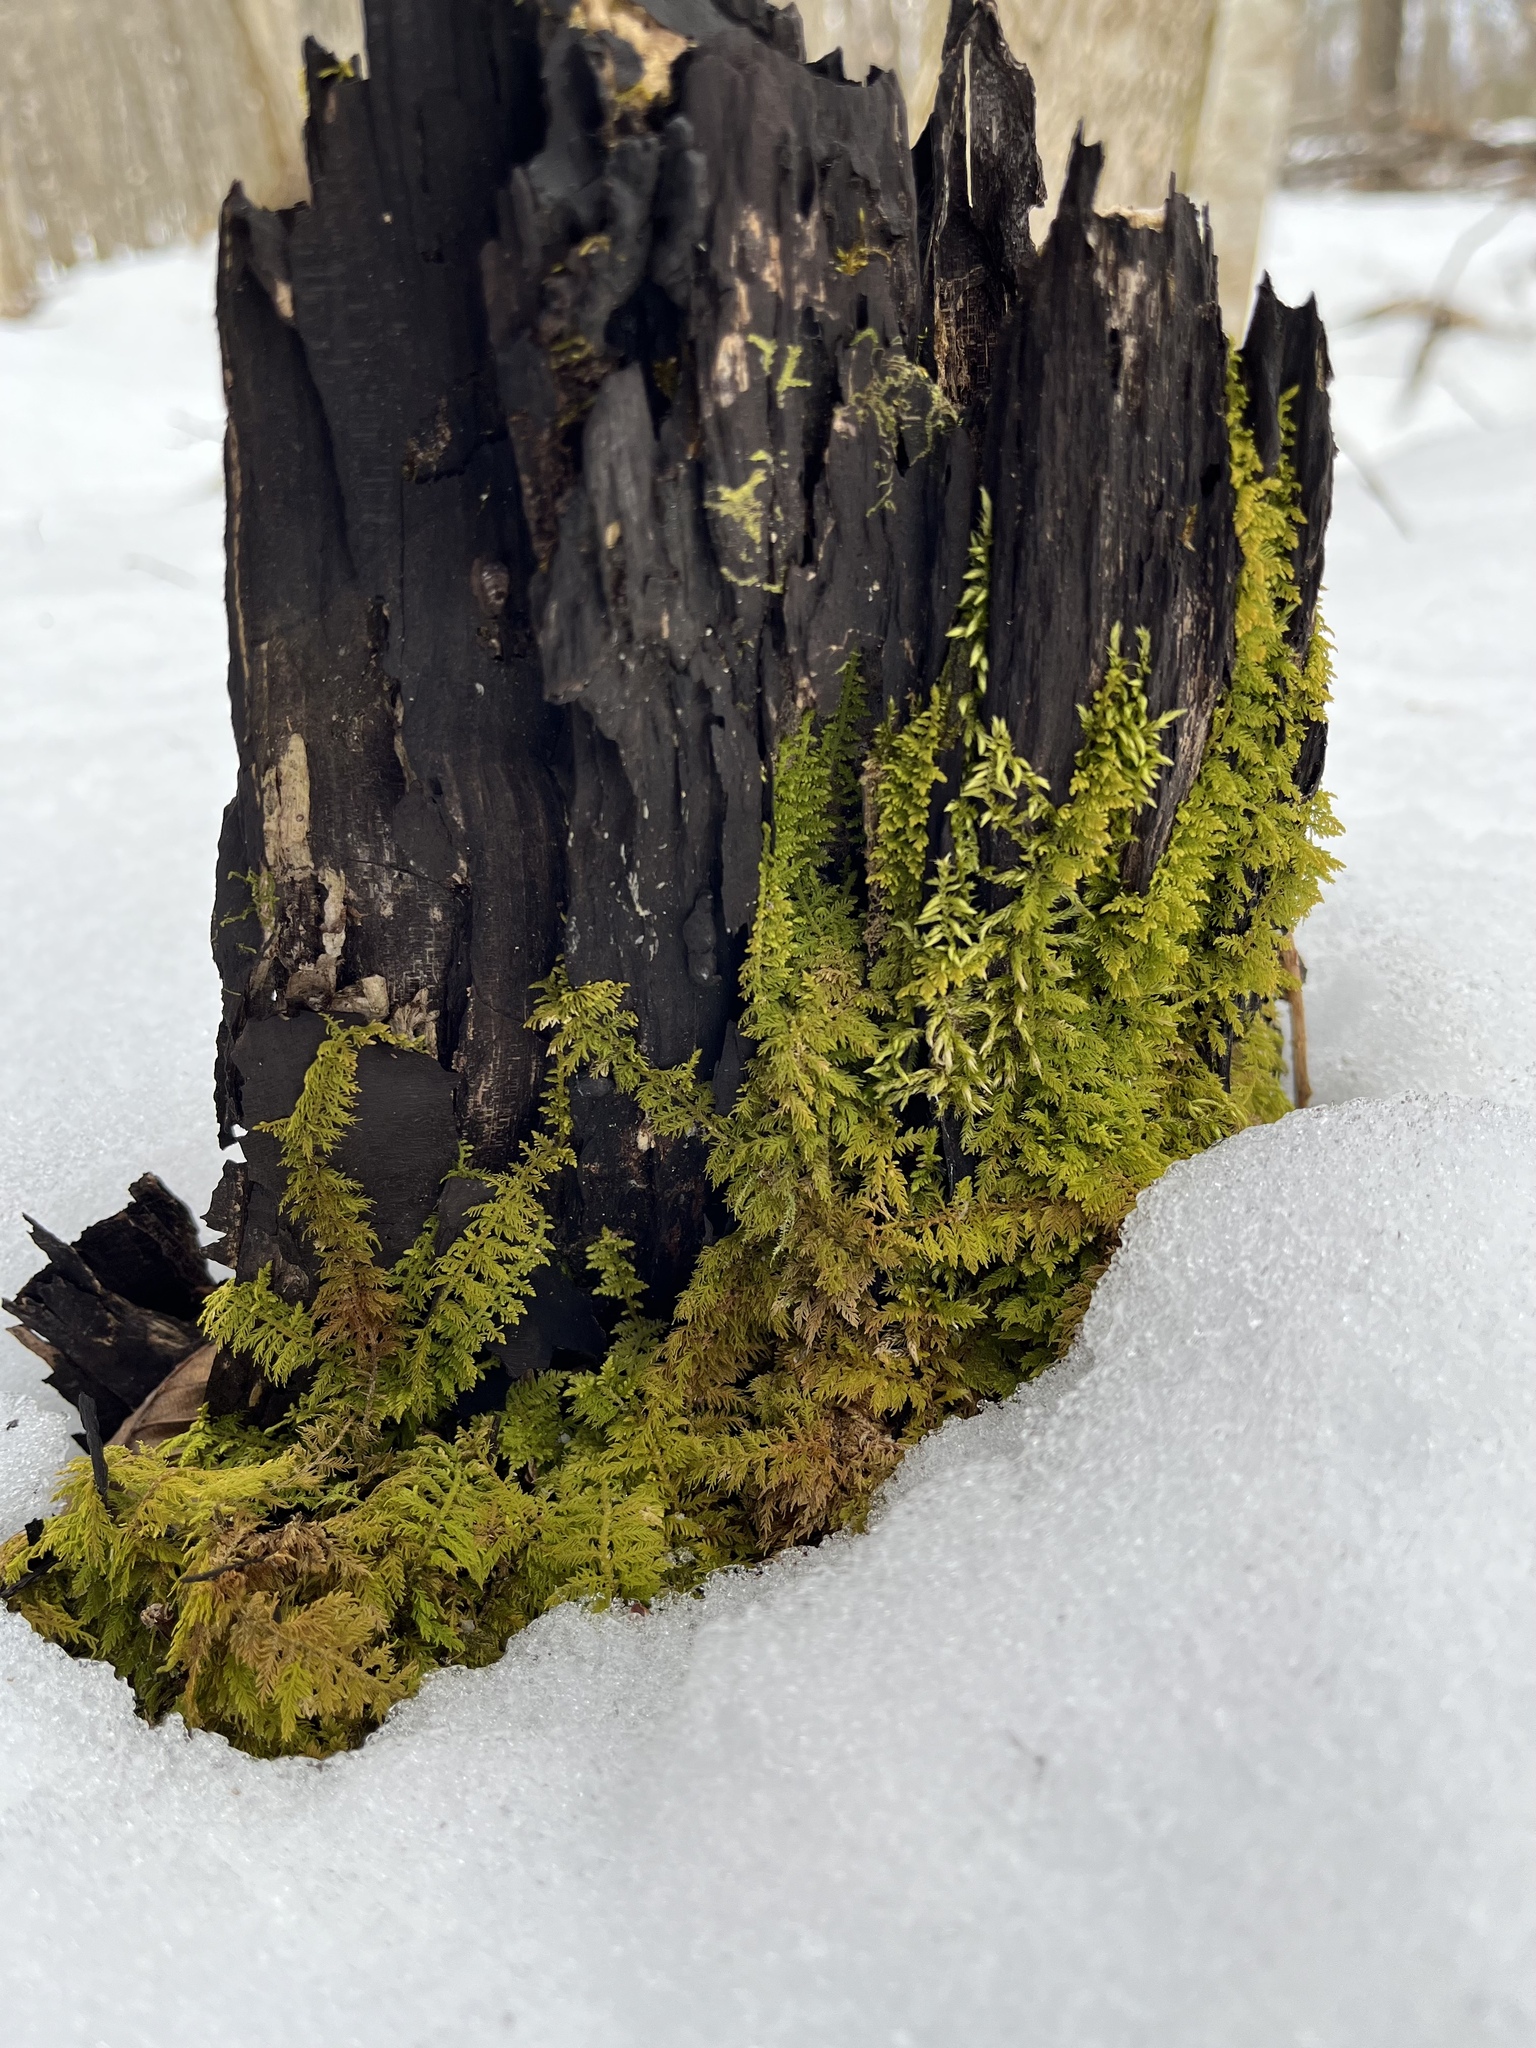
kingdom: Plantae
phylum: Bryophyta
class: Bryopsida
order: Hypnales
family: Thuidiaceae
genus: Thuidium
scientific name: Thuidium delicatulum
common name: Delicate fern moss
